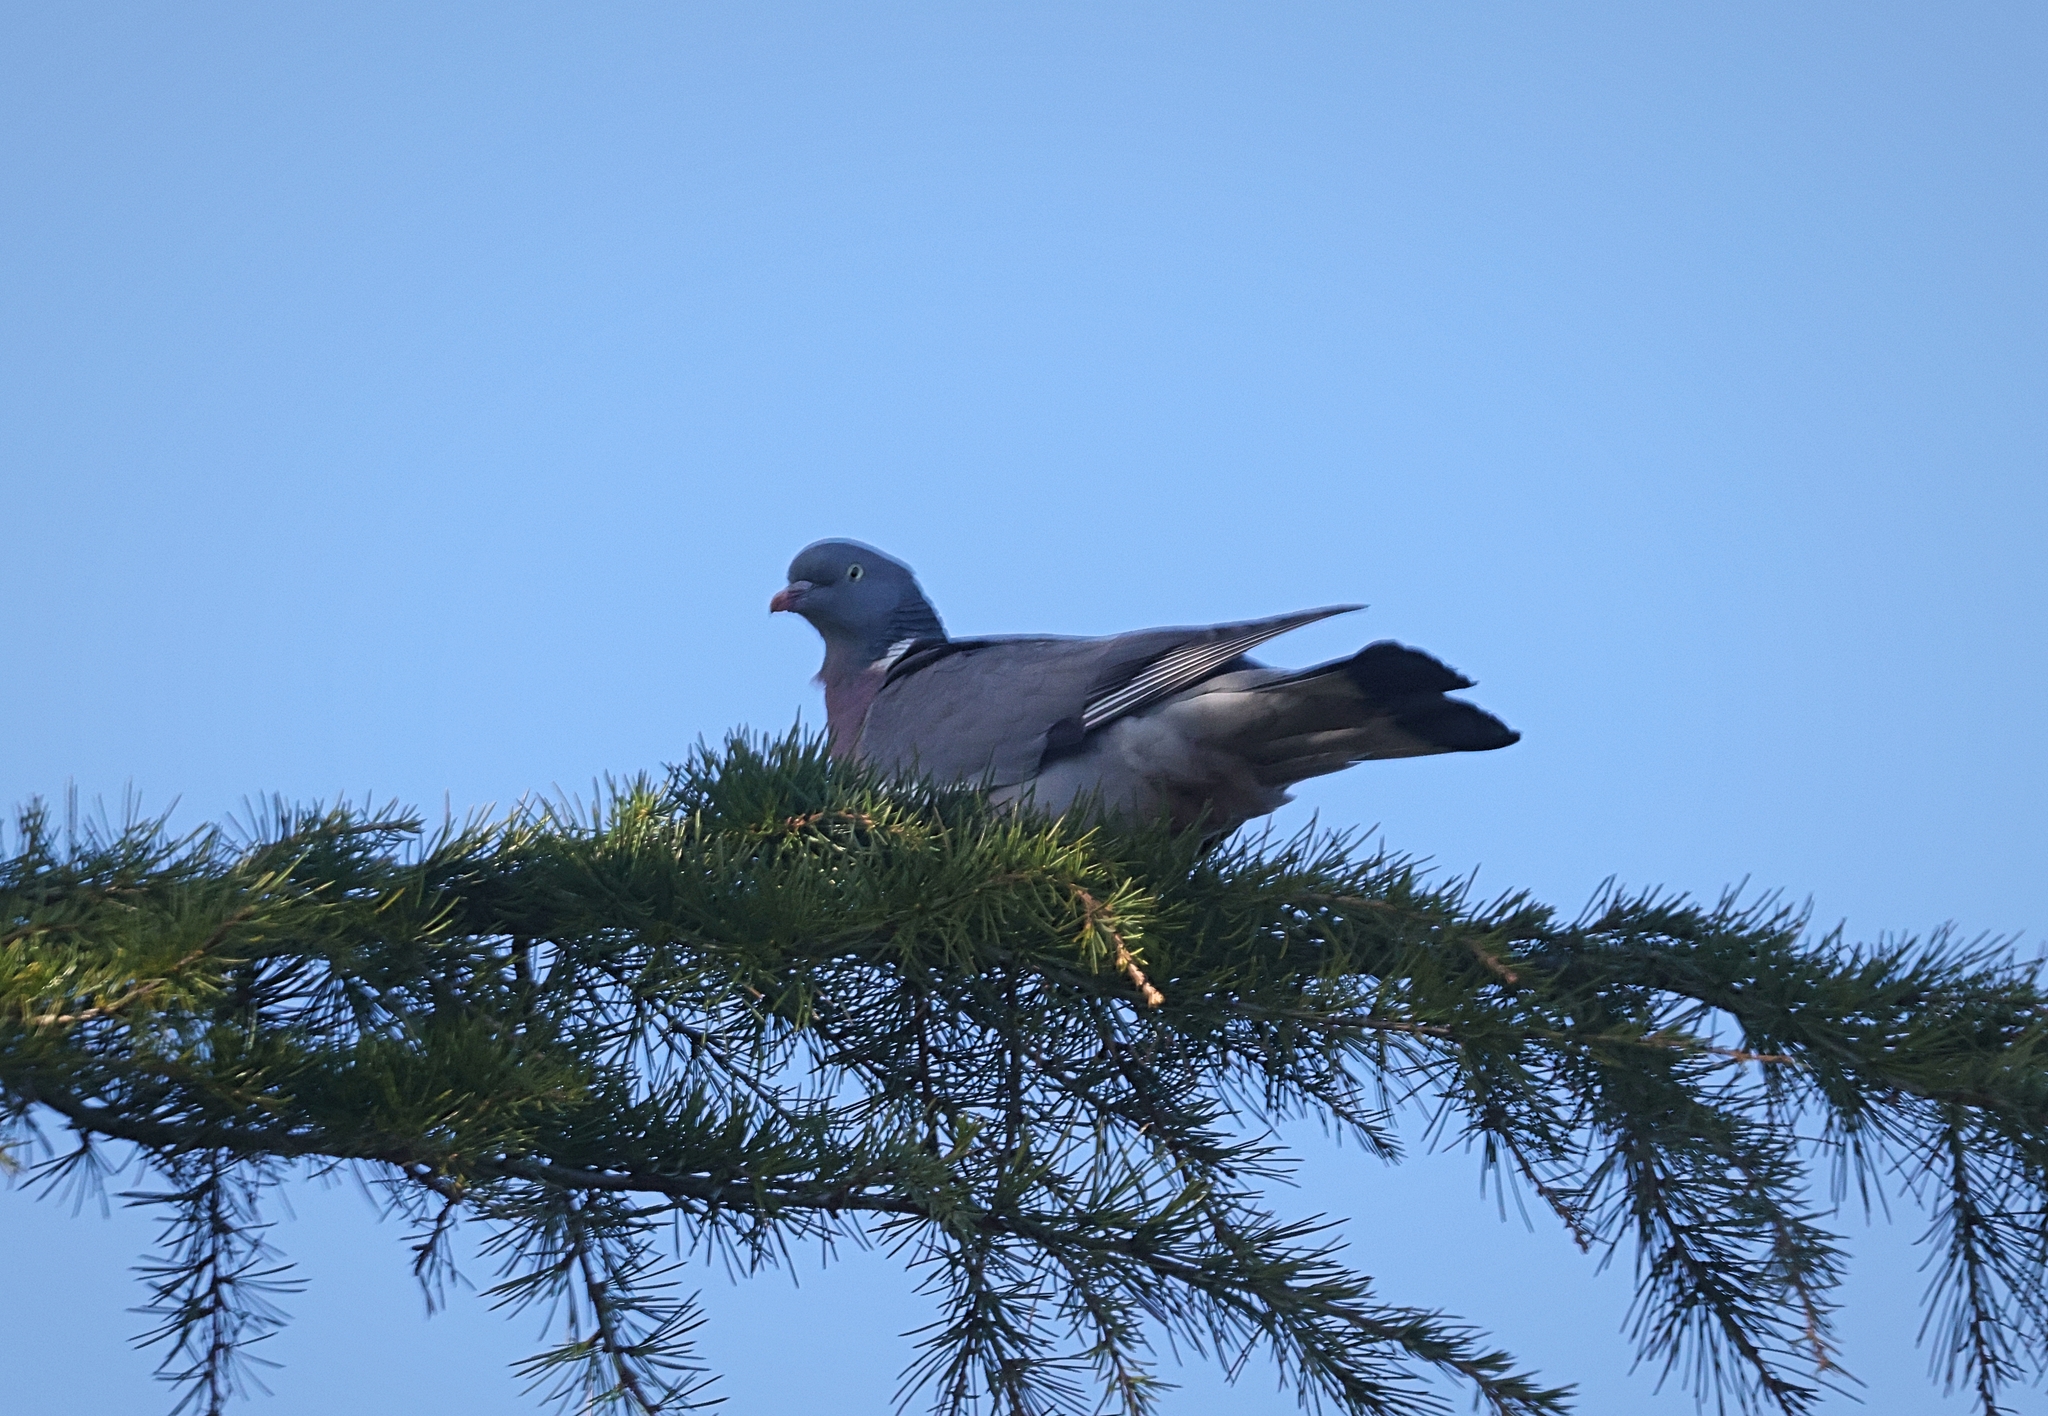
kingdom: Animalia
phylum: Chordata
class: Aves
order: Columbiformes
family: Columbidae
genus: Columba
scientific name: Columba palumbus
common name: Common wood pigeon
